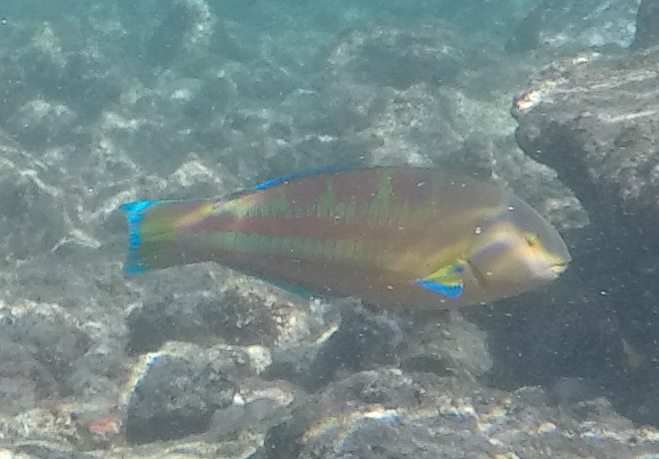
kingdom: Animalia
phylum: Chordata
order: Perciformes
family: Labridae
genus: Thalassoma
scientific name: Thalassoma trilobatum
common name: Christmas wrasse
